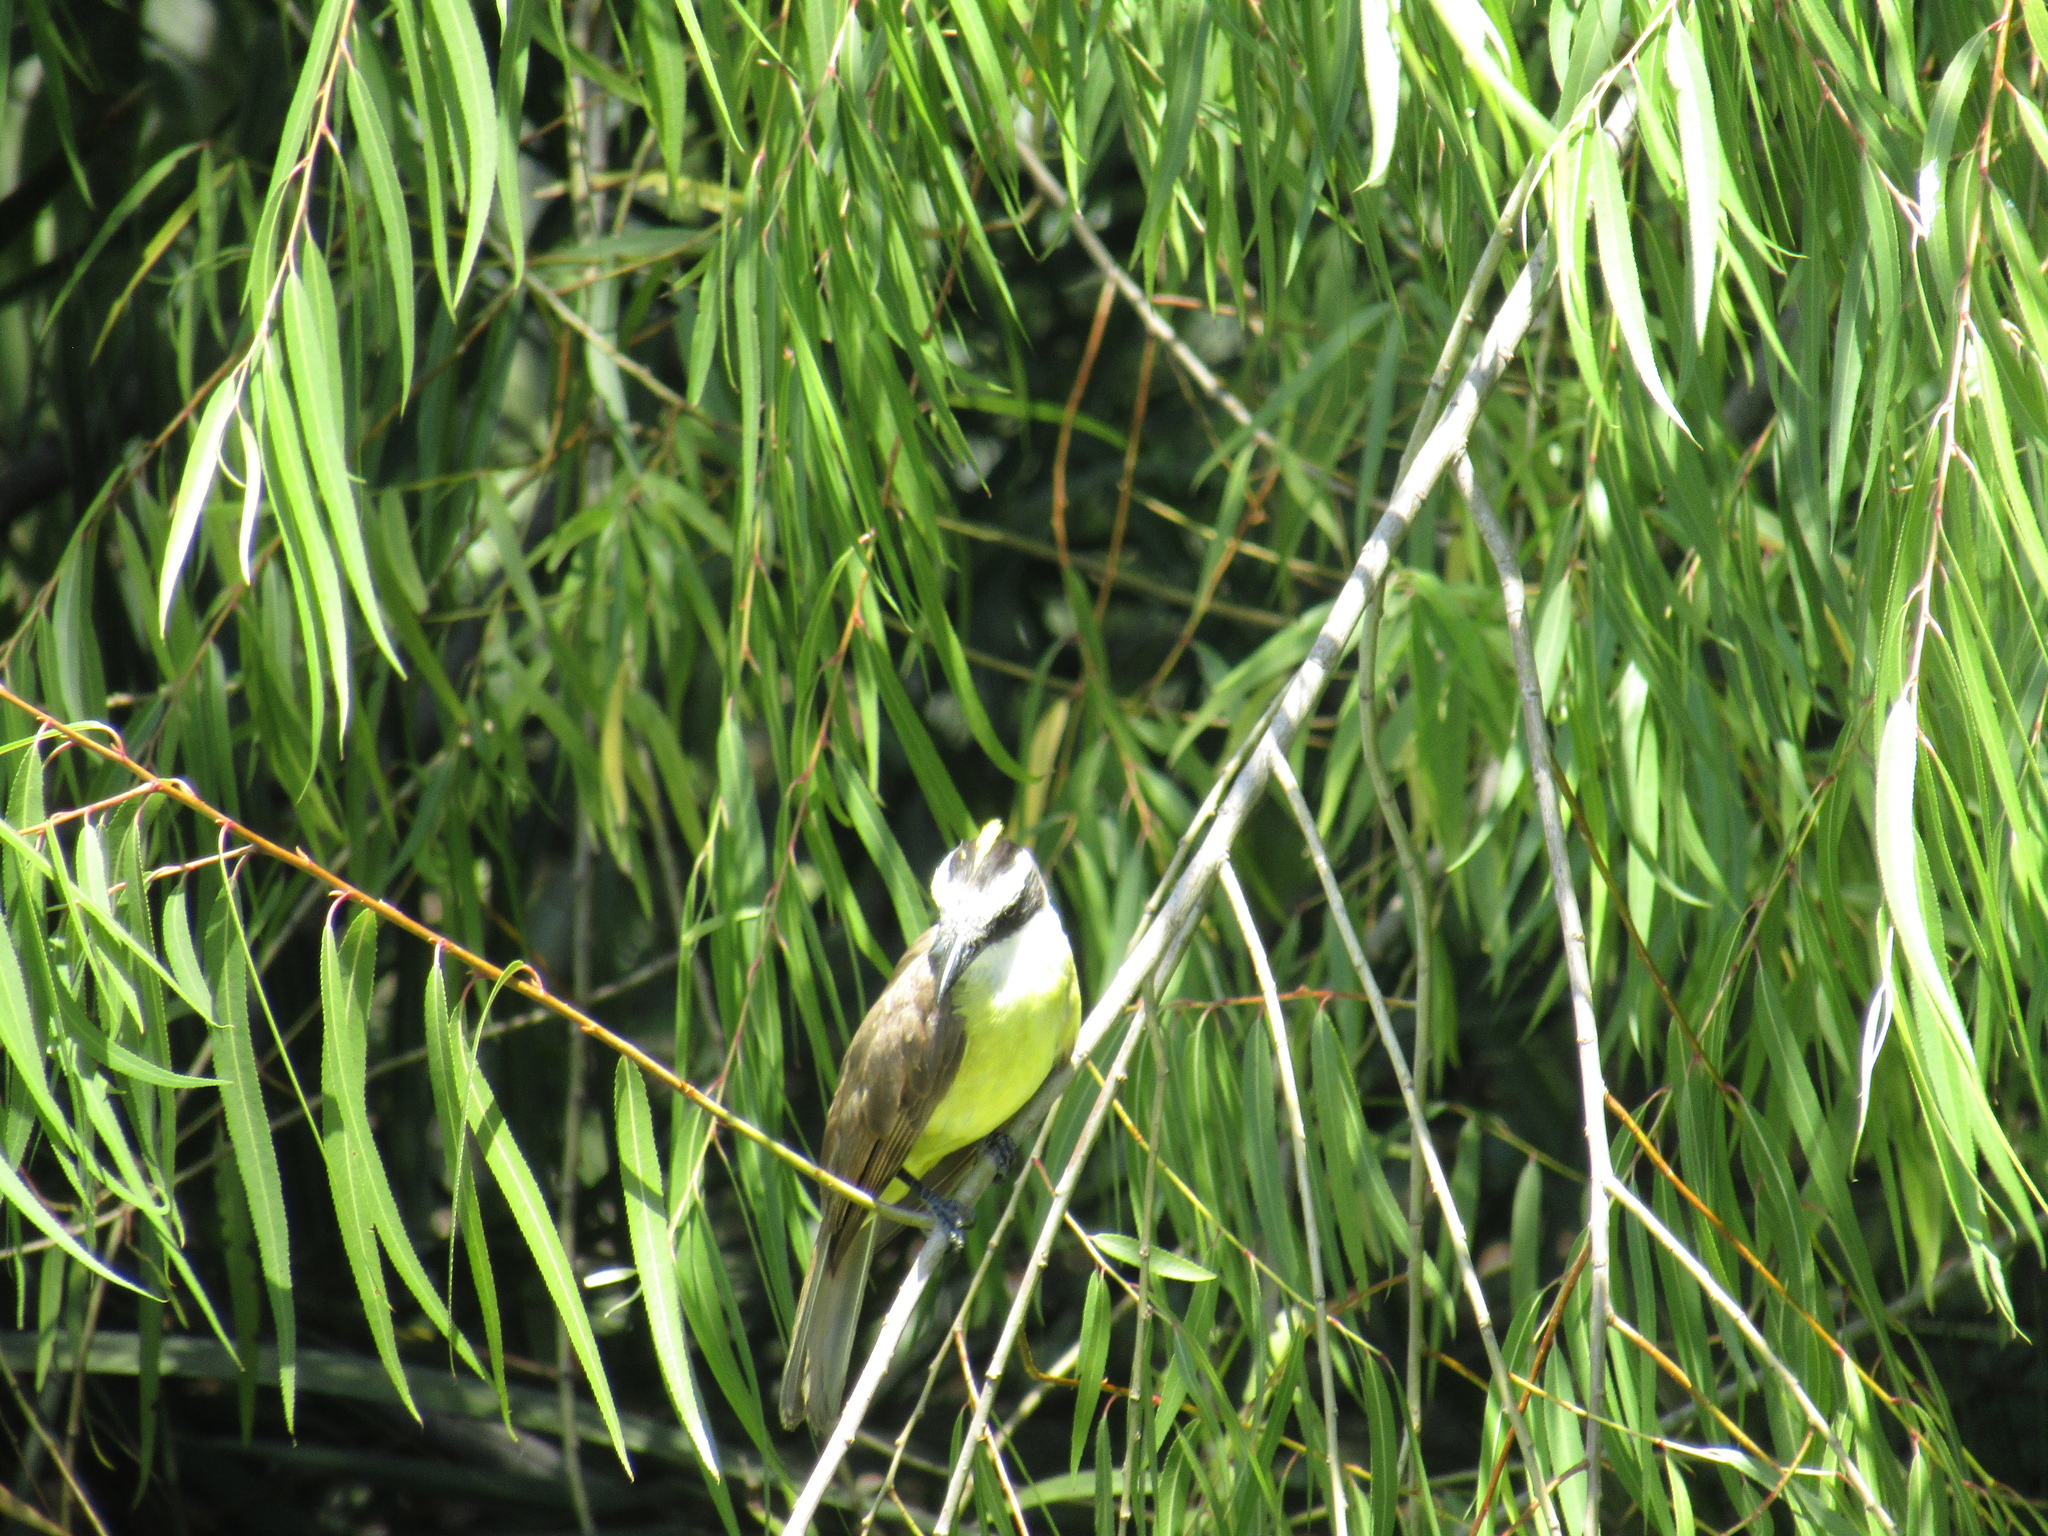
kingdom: Animalia
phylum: Chordata
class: Aves
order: Passeriformes
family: Tyrannidae
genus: Pitangus
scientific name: Pitangus sulphuratus
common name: Great kiskadee
